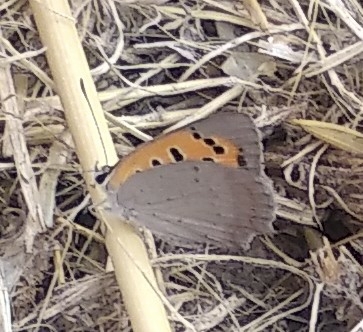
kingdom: Animalia
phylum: Arthropoda
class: Insecta
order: Lepidoptera
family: Lycaenidae
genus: Lycaena
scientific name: Lycaena phlaeas
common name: Small copper
